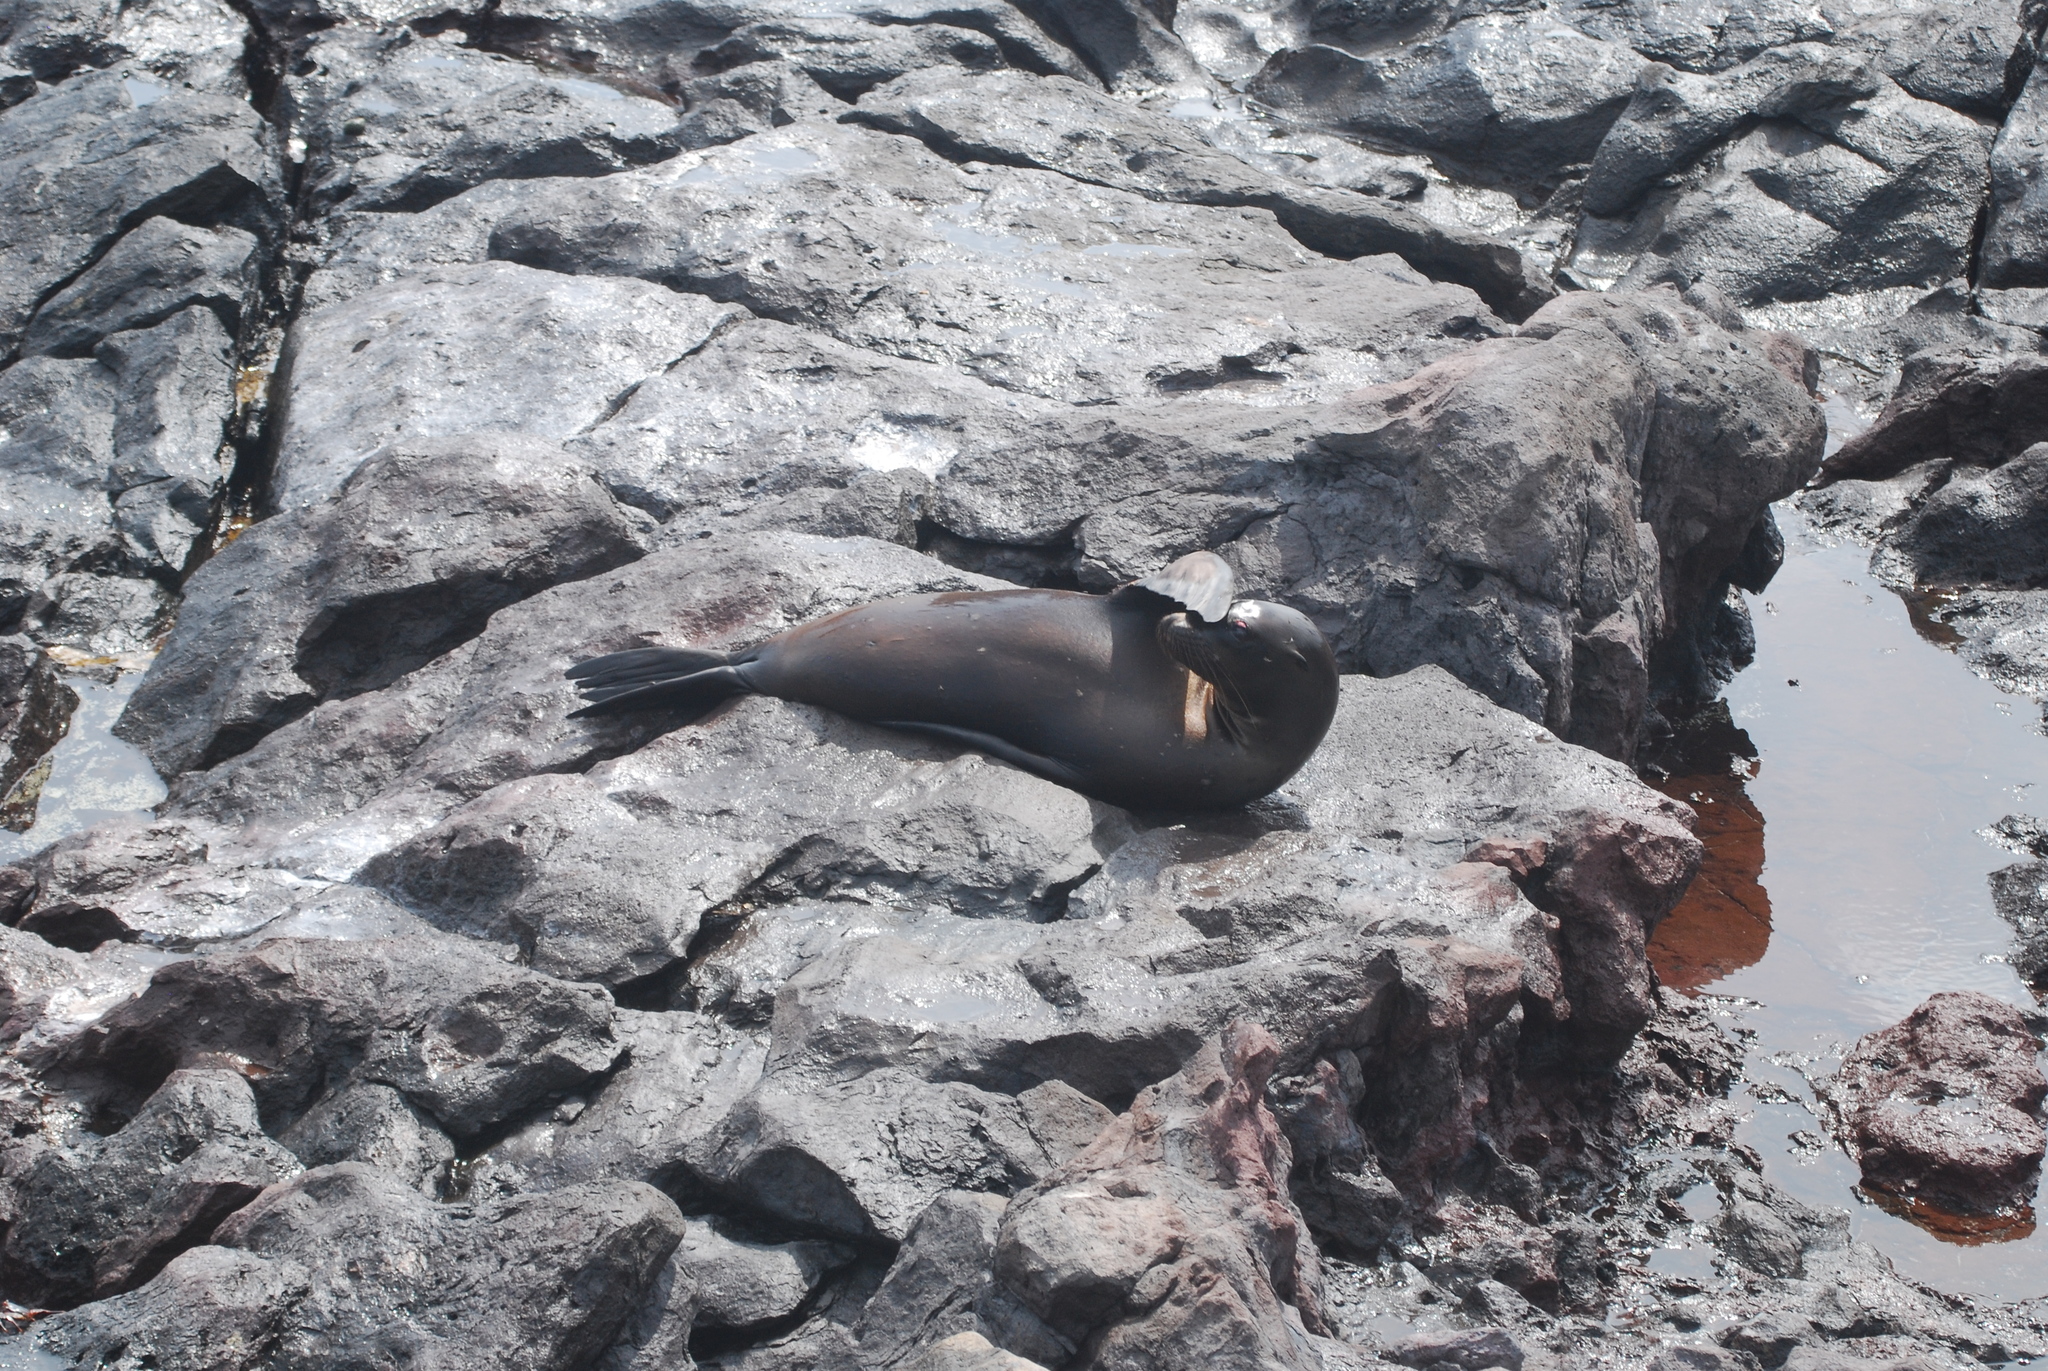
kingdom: Animalia
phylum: Chordata
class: Mammalia
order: Carnivora
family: Otariidae
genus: Zalophus
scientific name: Zalophus wollebaeki
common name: Galapagos sea lion
